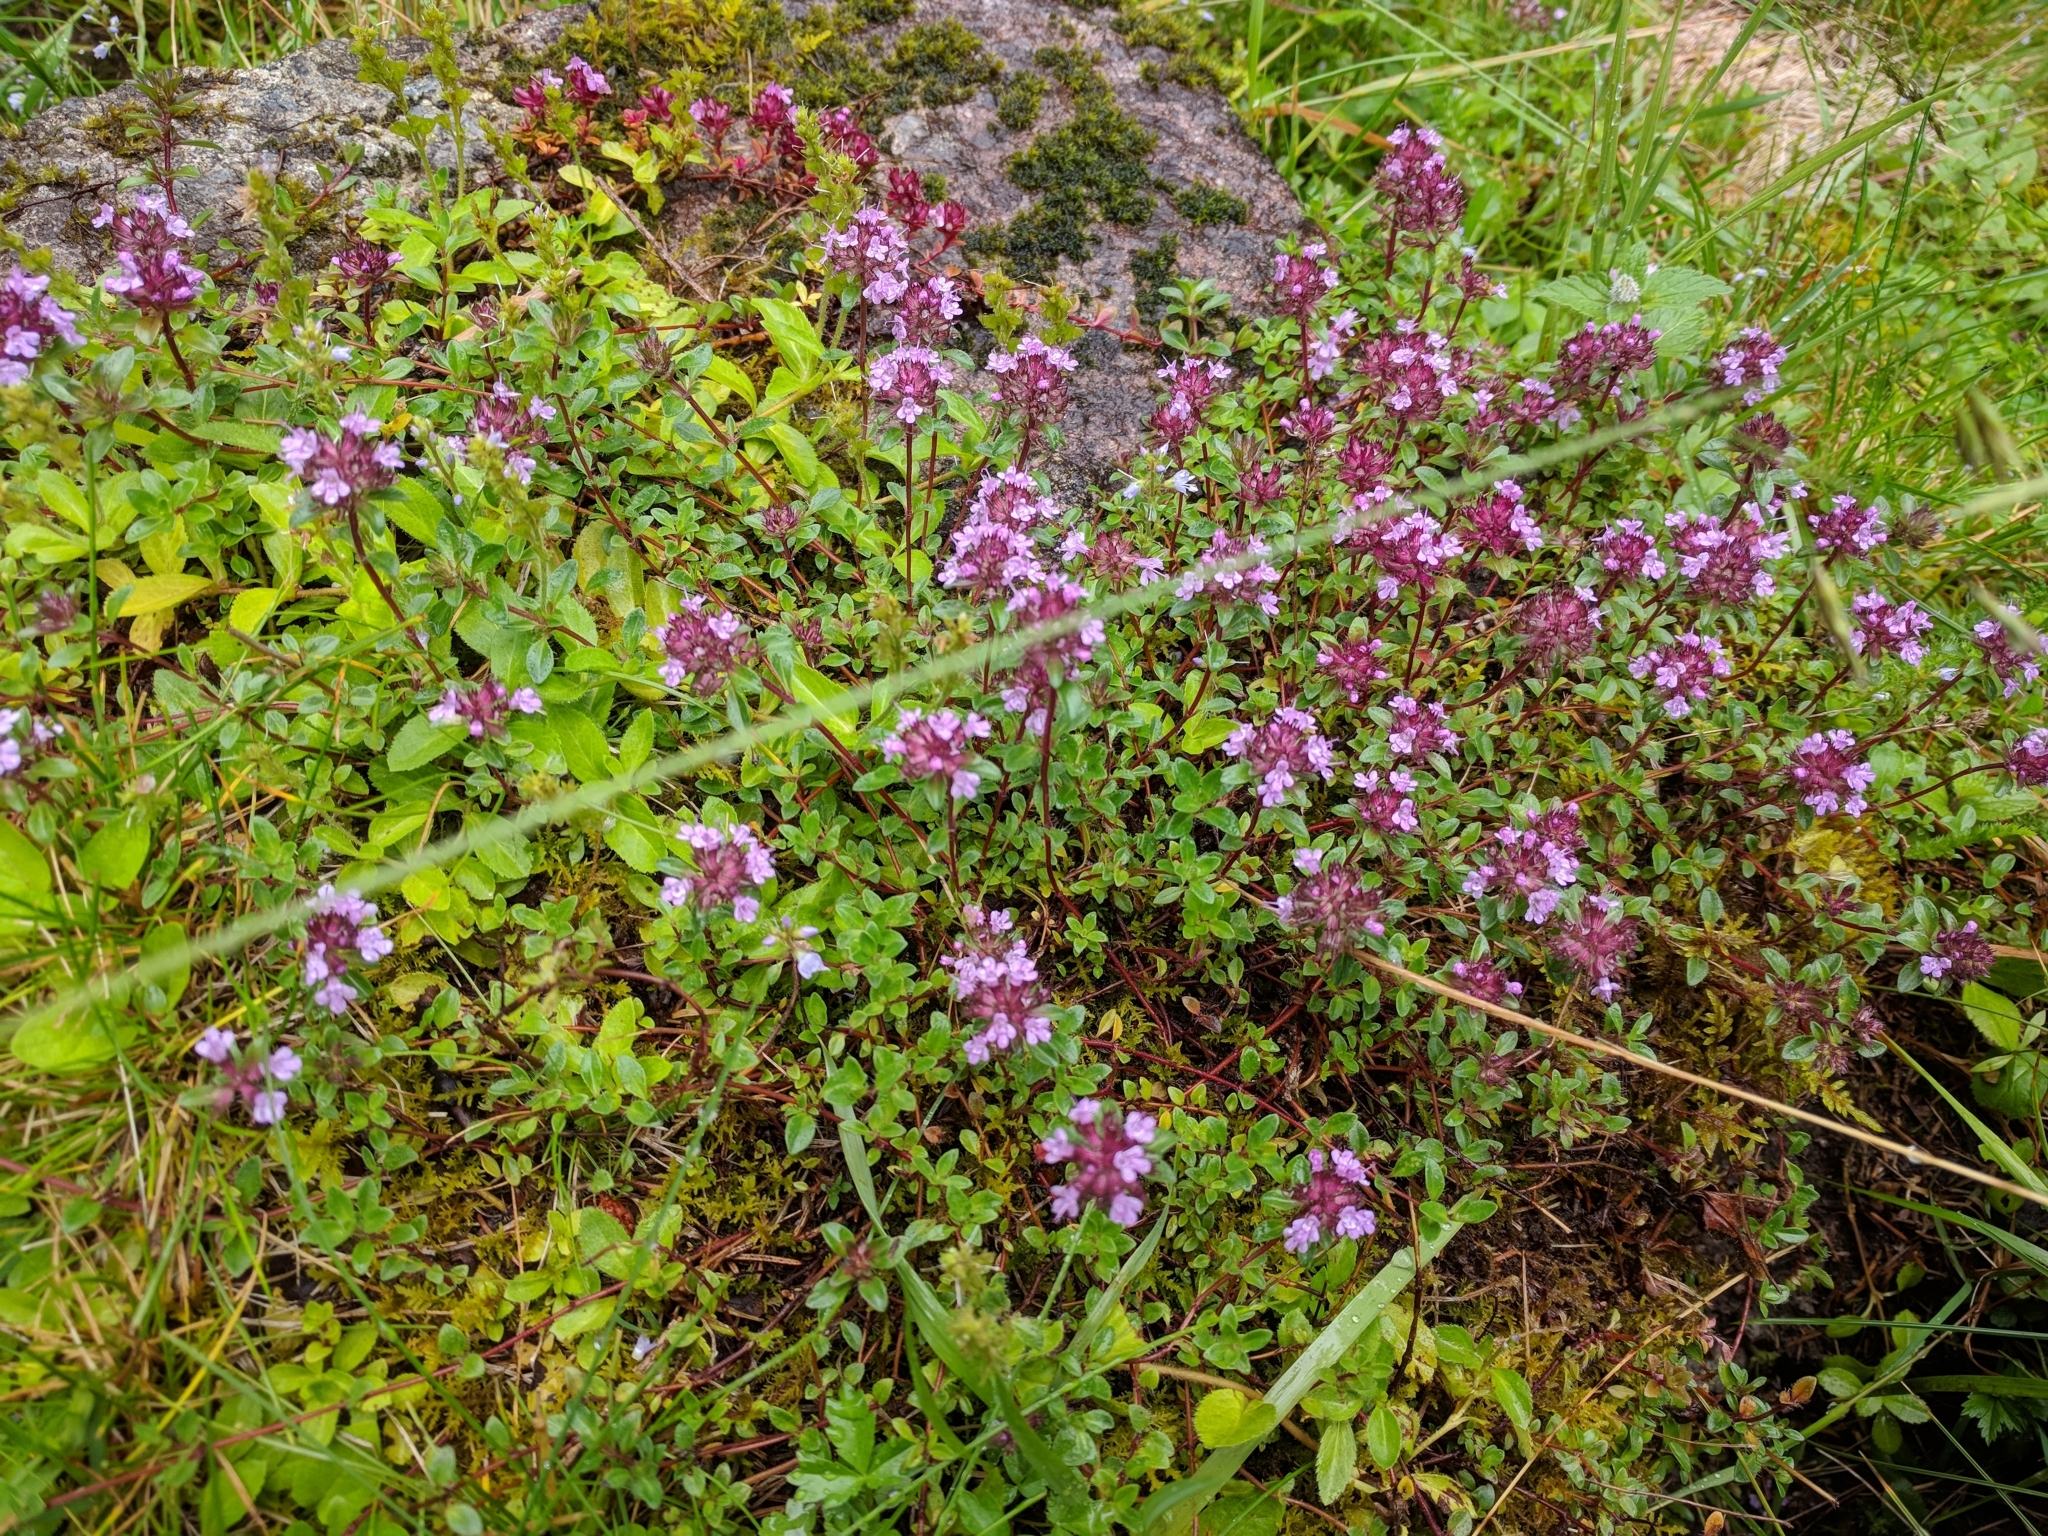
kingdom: Plantae
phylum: Tracheophyta
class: Magnoliopsida
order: Lamiales
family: Lamiaceae
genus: Thymus
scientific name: Thymus pulegioides
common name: Large thyme
